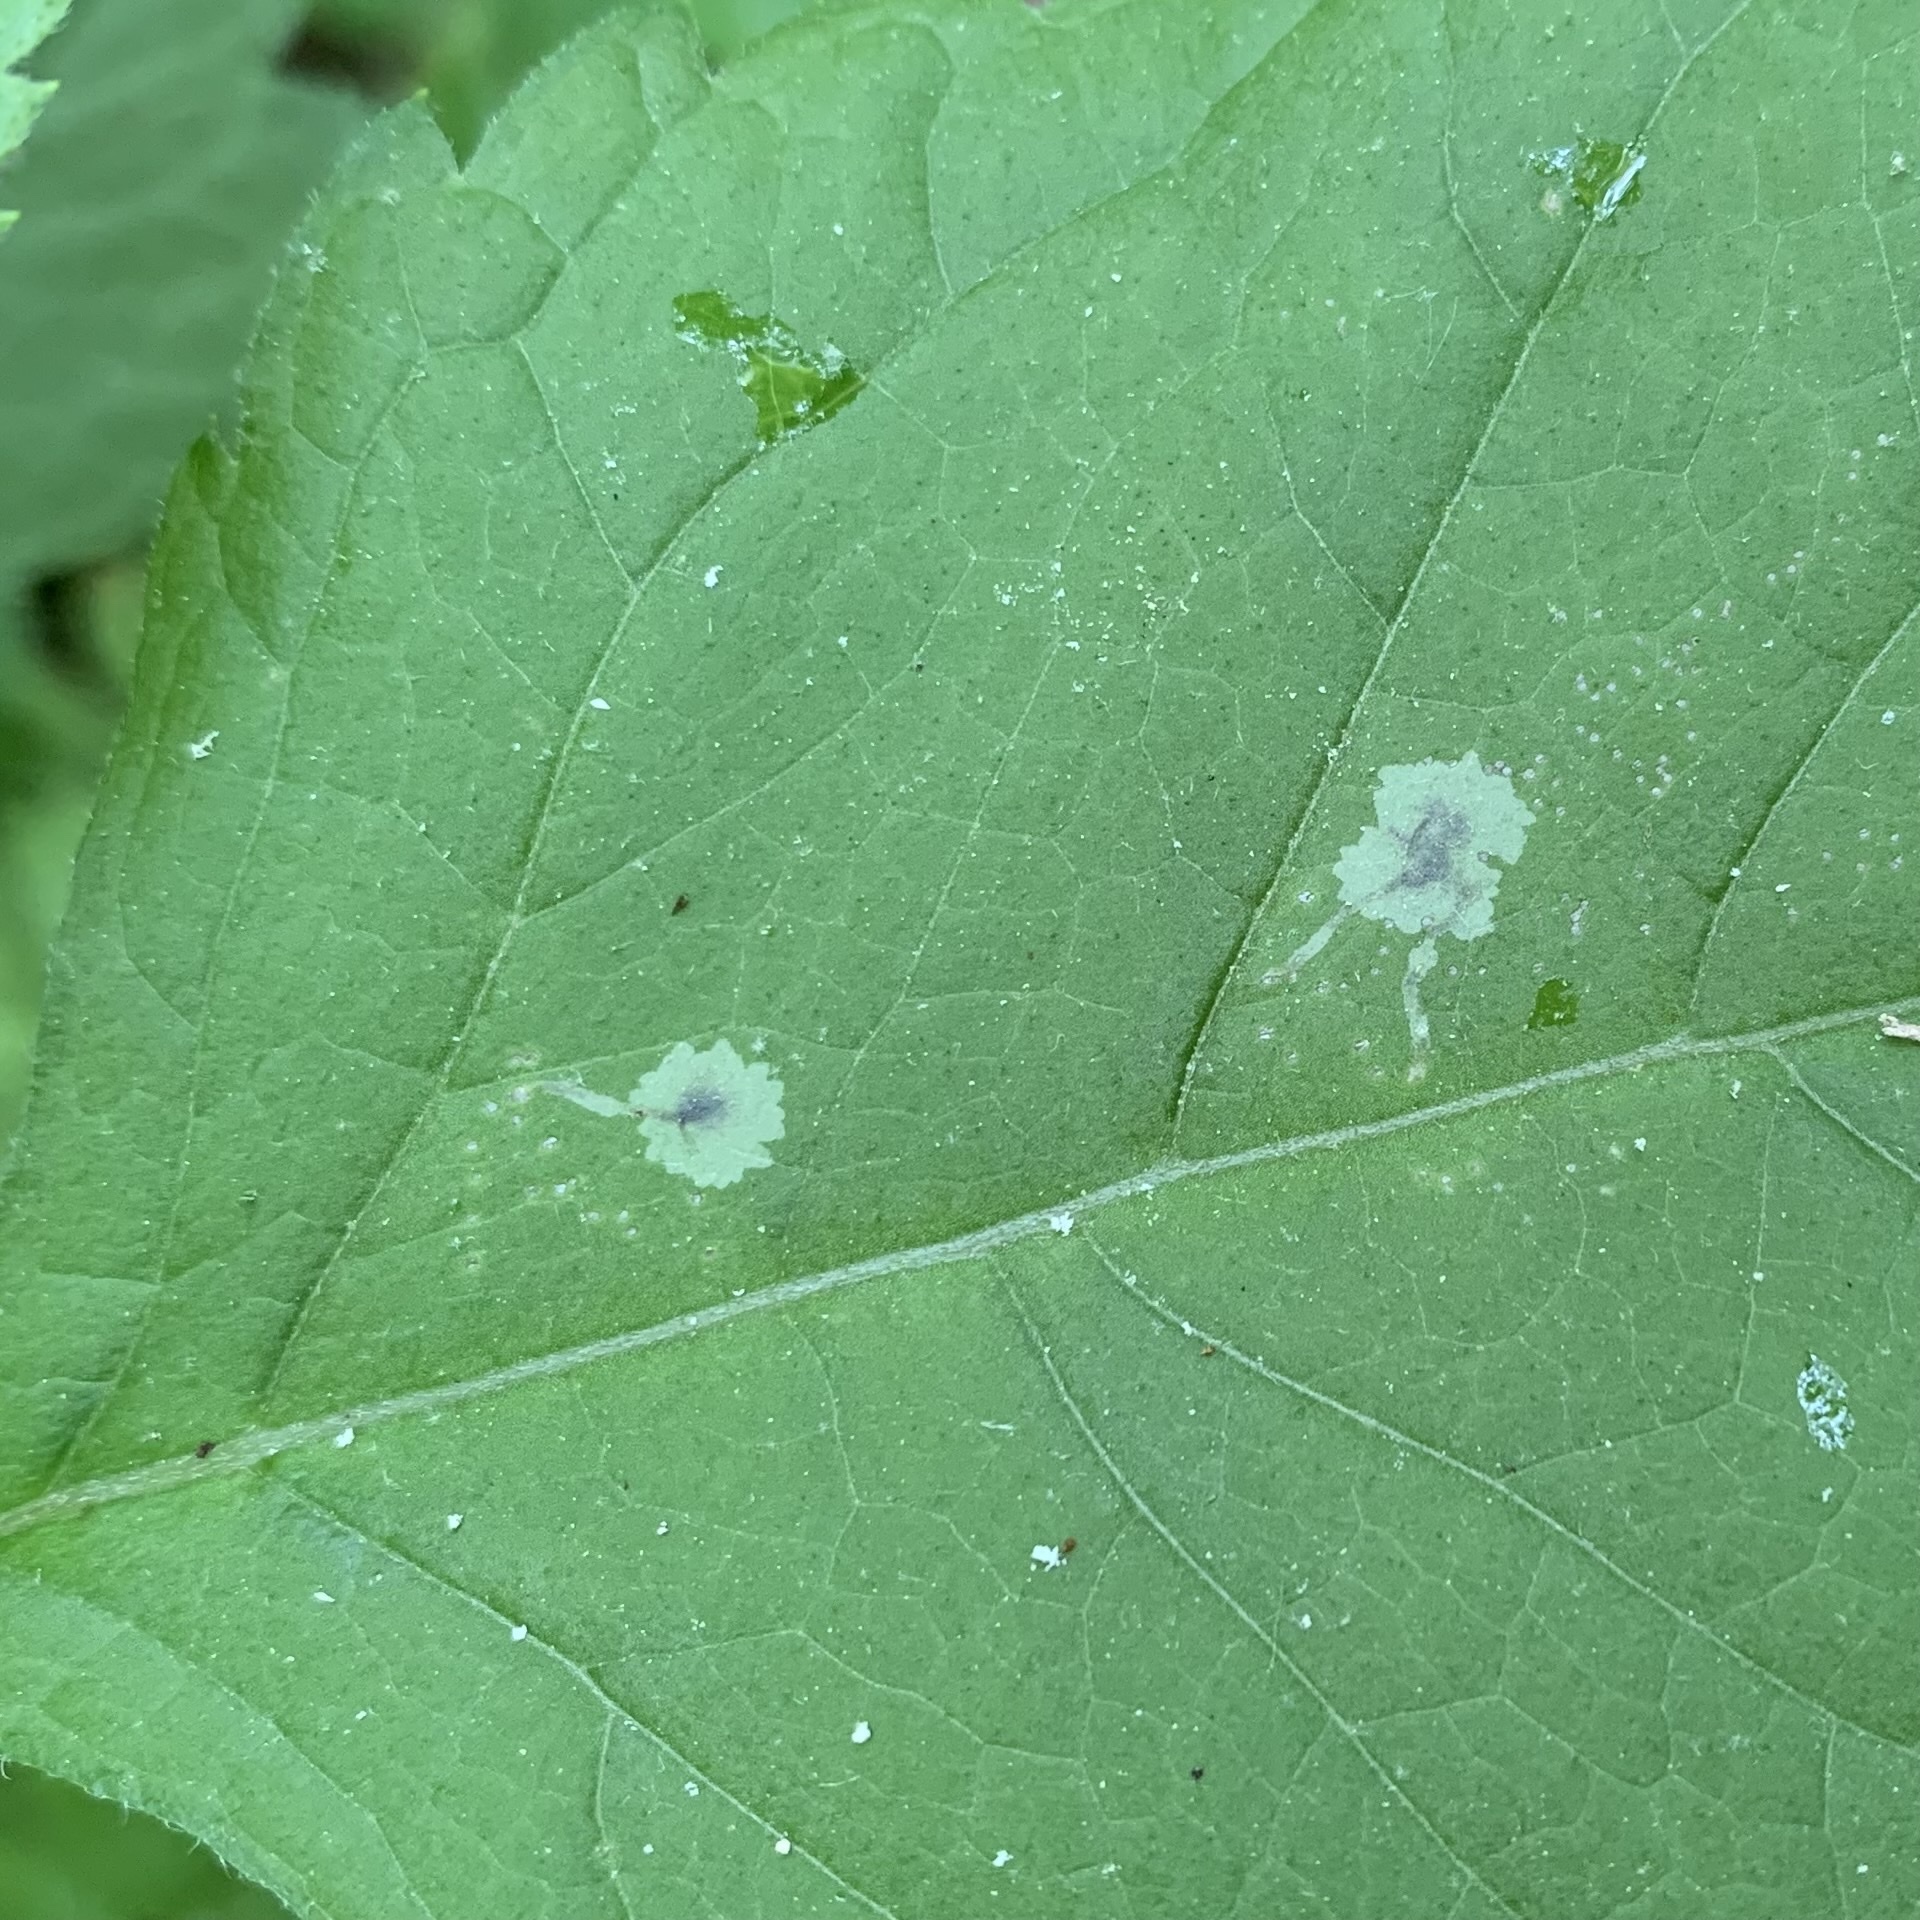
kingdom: Animalia
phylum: Arthropoda
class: Insecta
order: Diptera
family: Agromyzidae
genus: Calycomyza
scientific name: Calycomyza flavinotum
